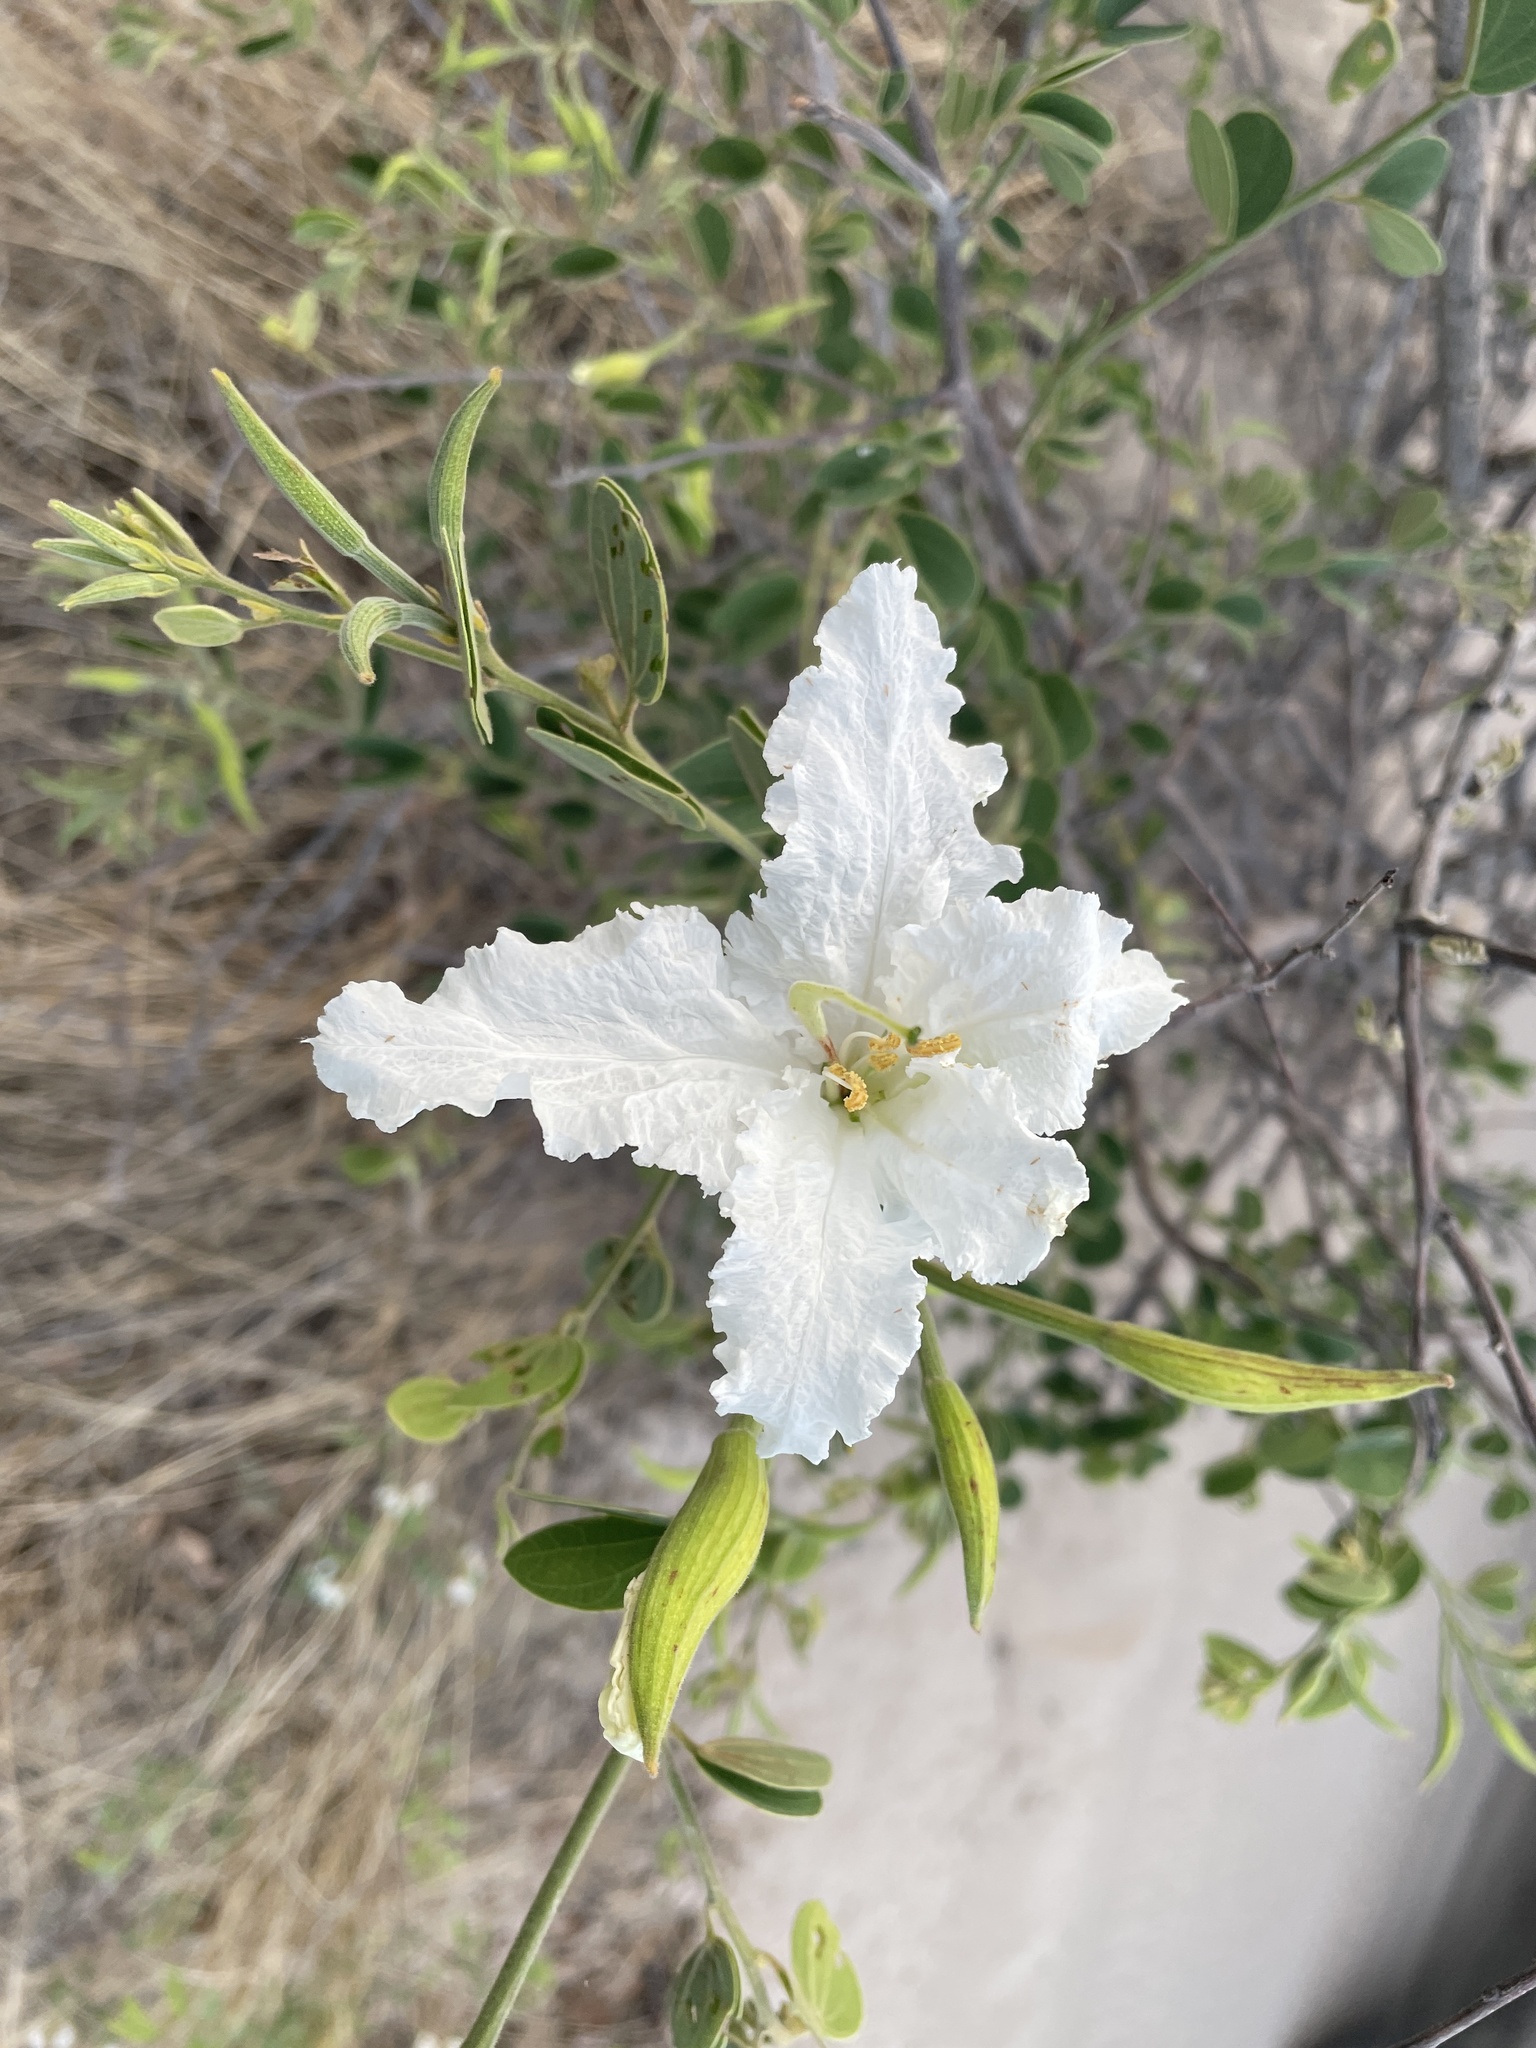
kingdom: Plantae
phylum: Tracheophyta
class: Magnoliopsida
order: Fabales
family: Fabaceae
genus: Bauhinia
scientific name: Bauhinia petersiana
